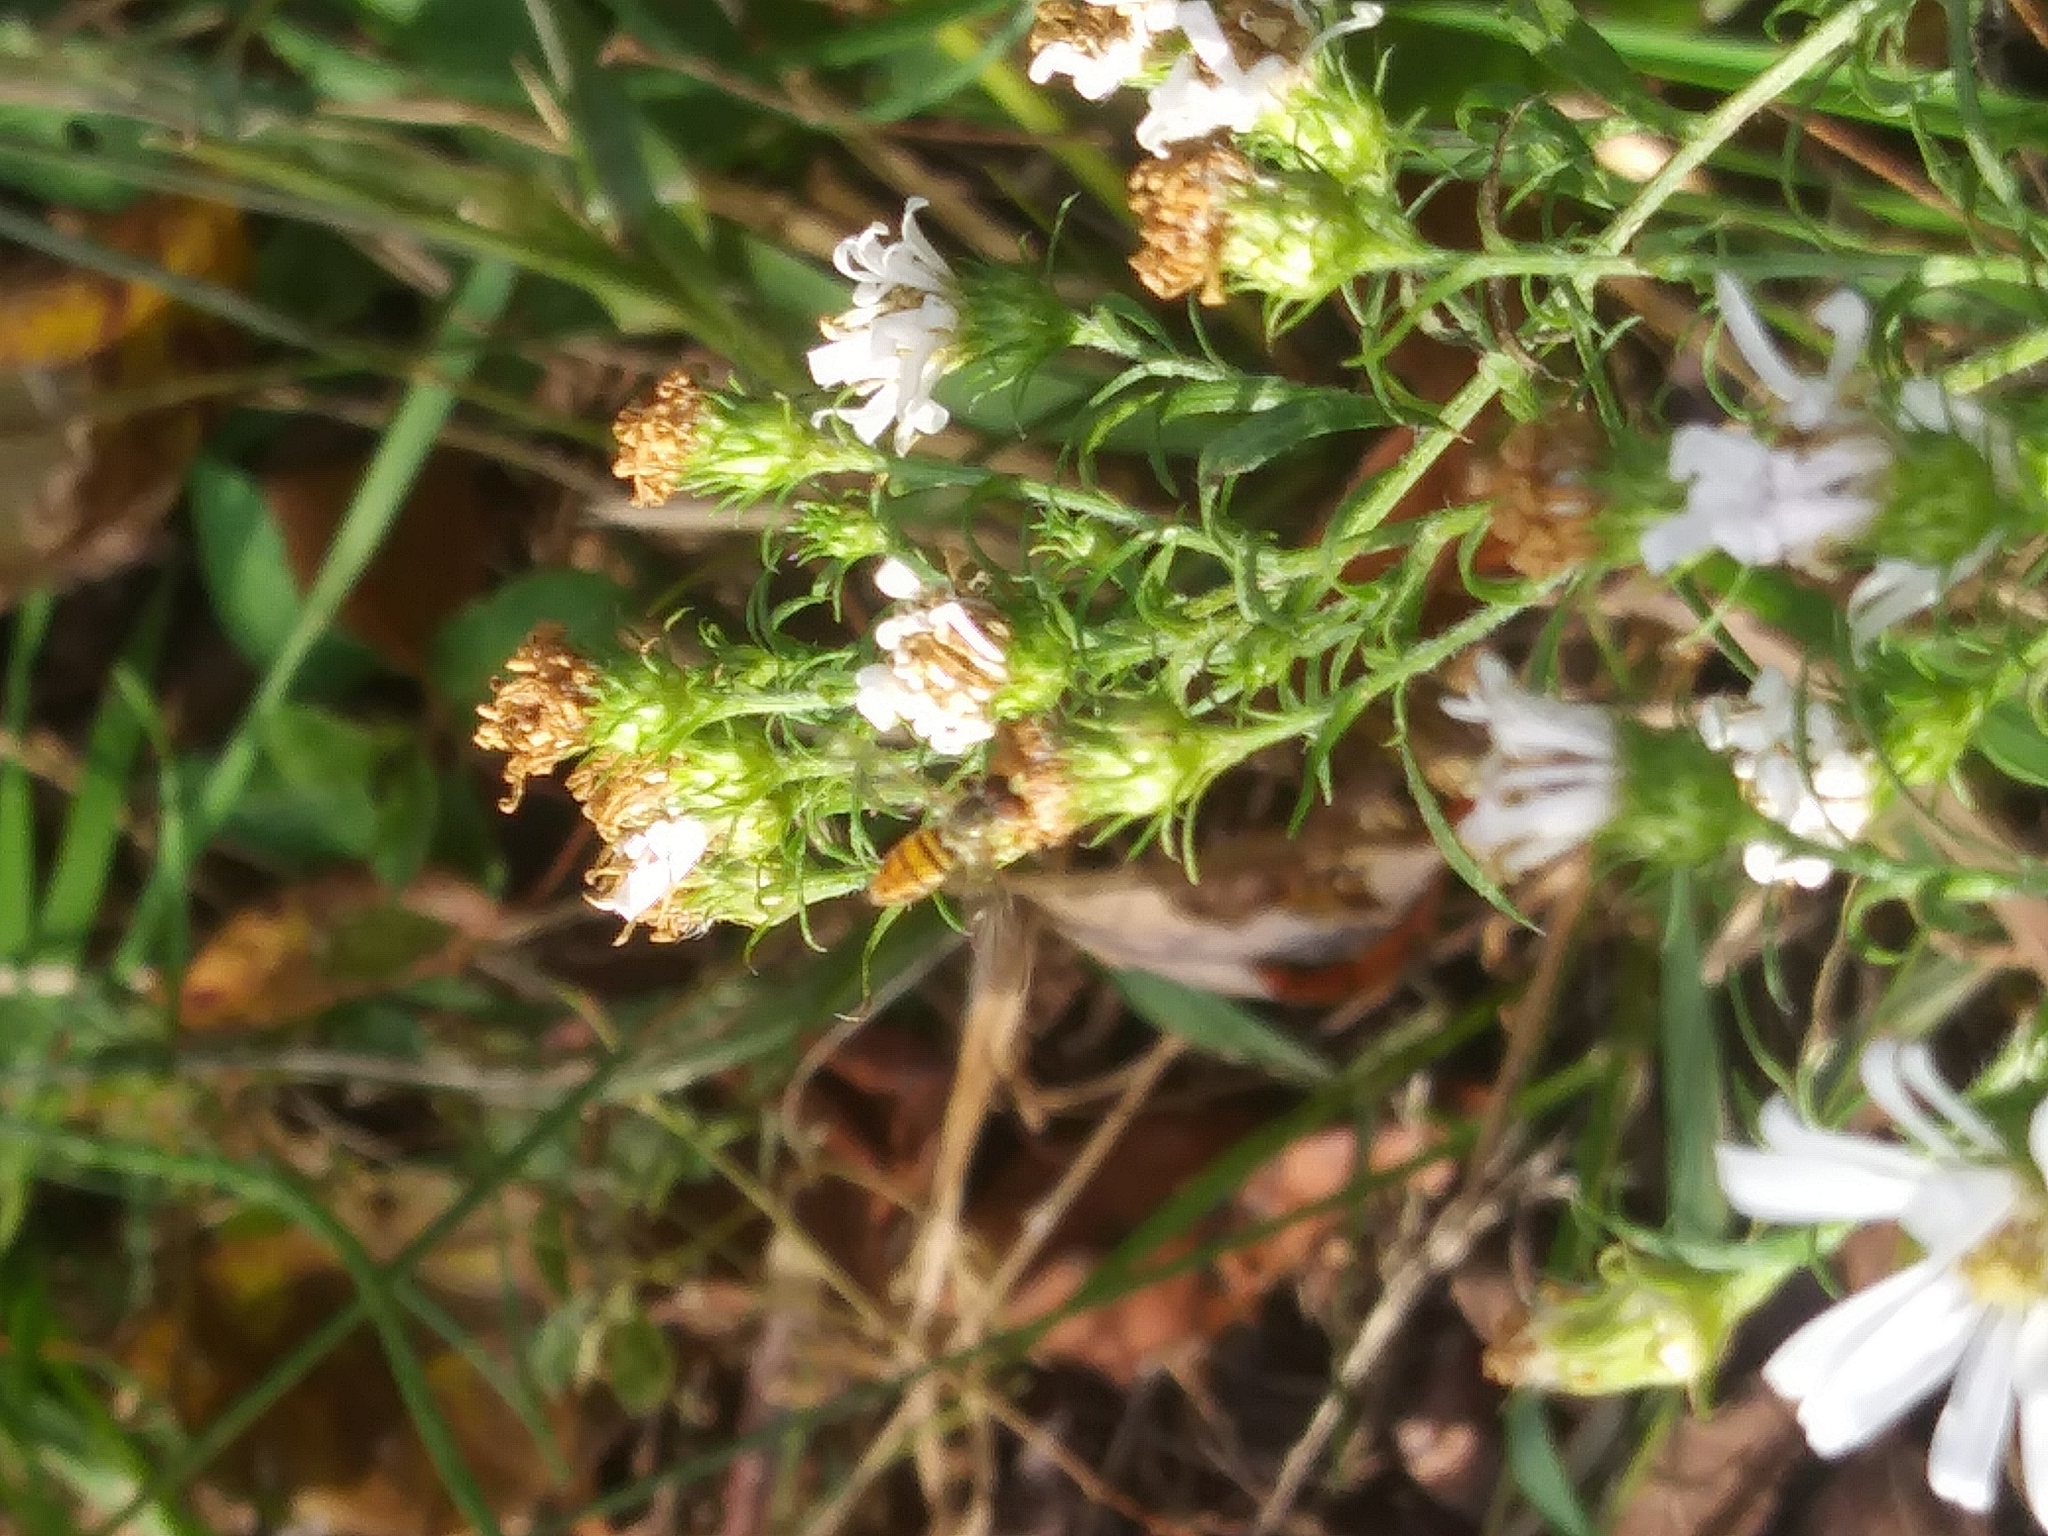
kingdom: Animalia
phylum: Arthropoda
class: Insecta
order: Diptera
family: Syrphidae
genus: Toxomerus
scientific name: Toxomerus marginatus
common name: Syrphid fly
